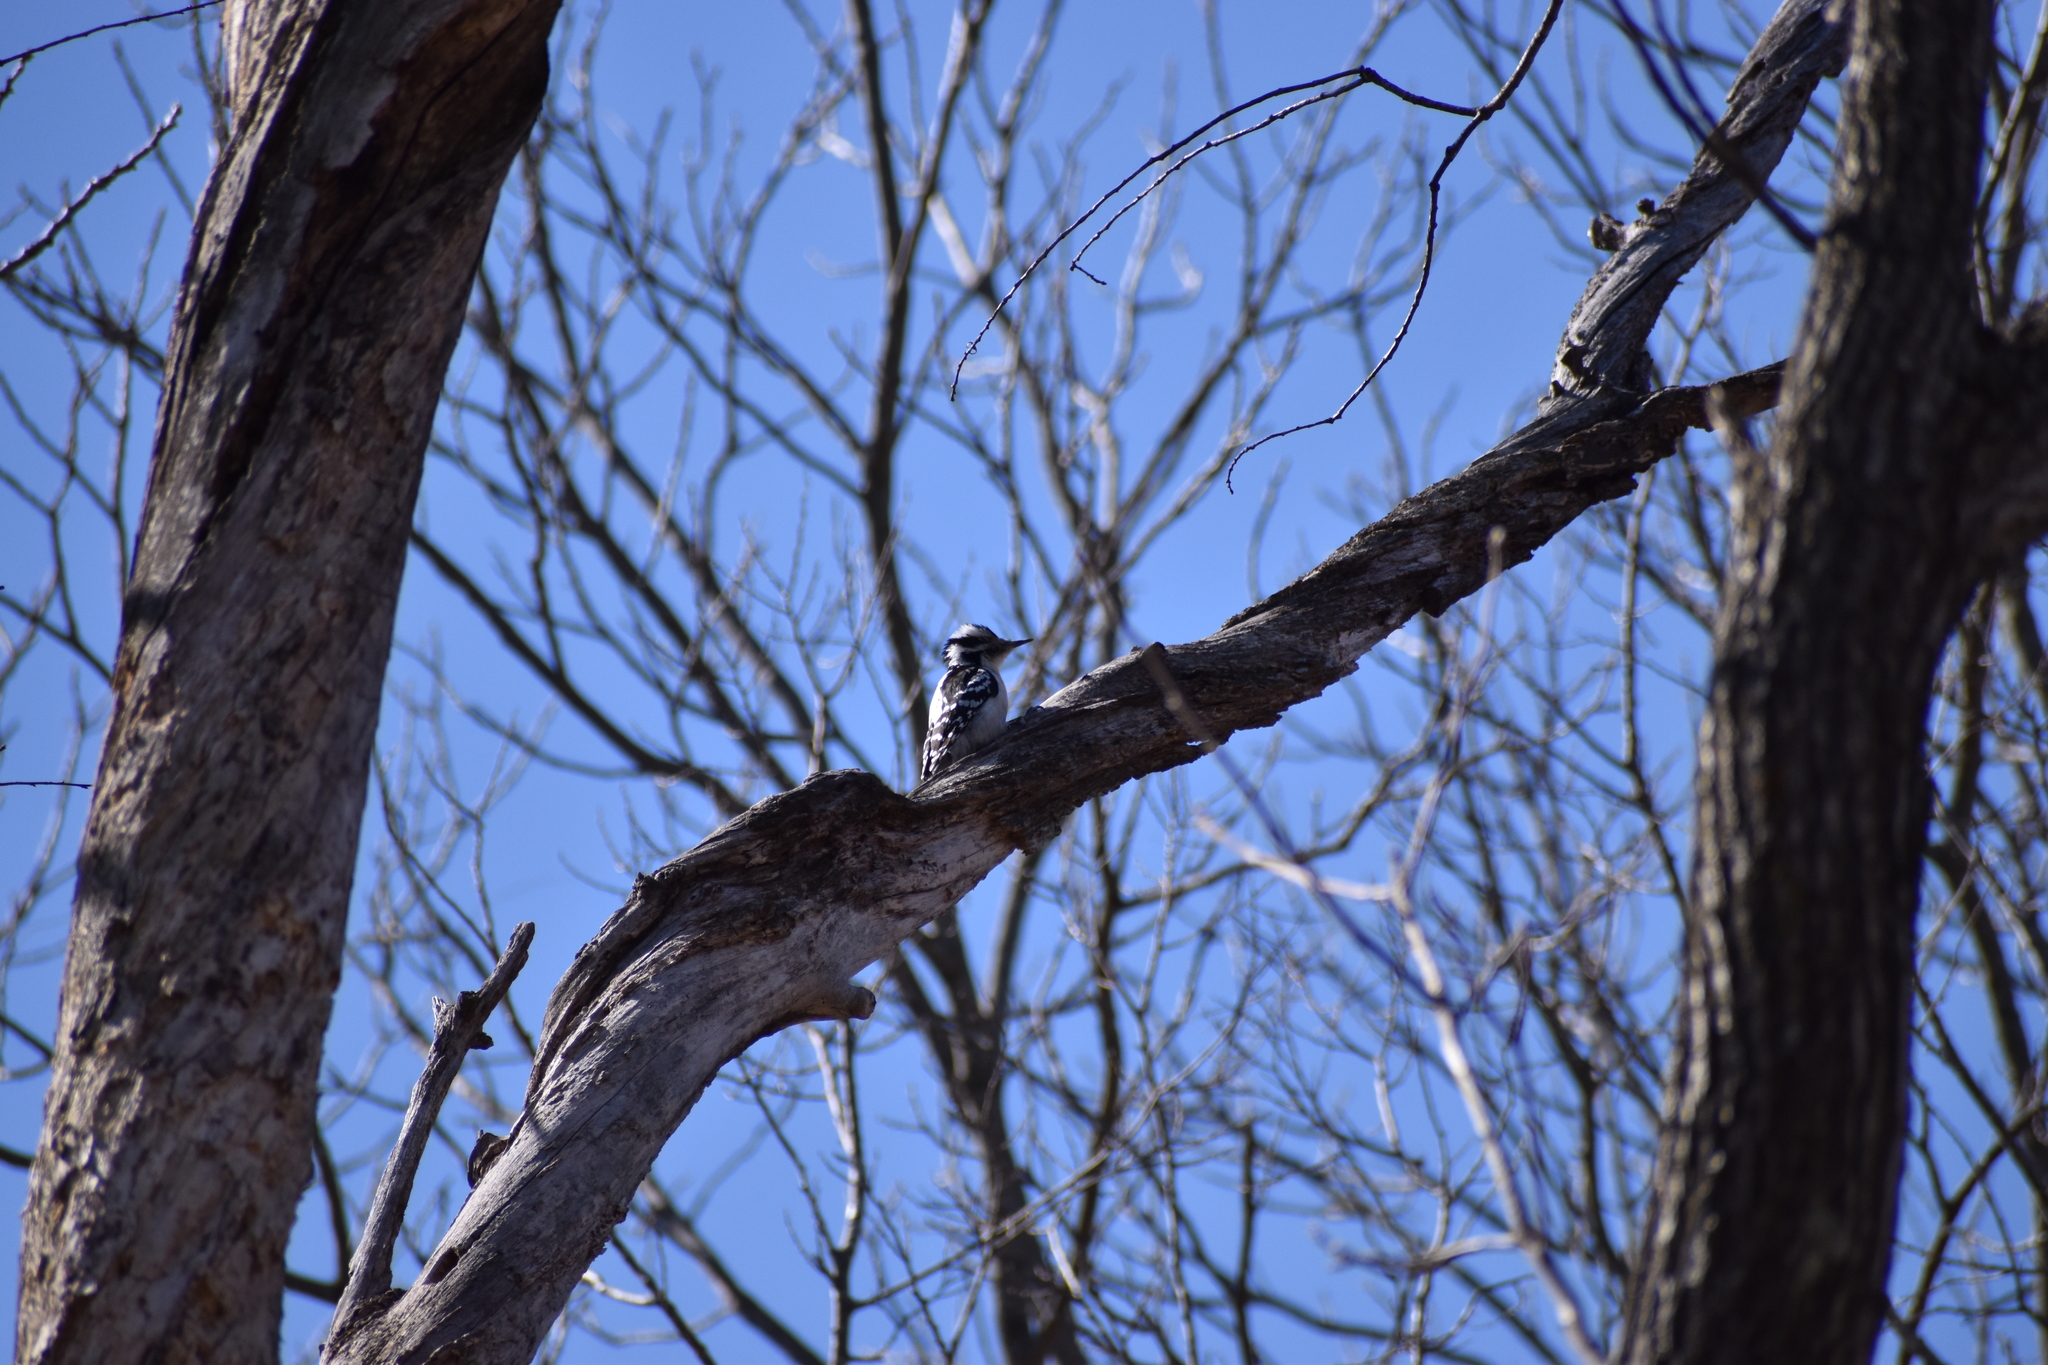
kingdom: Animalia
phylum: Chordata
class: Aves
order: Piciformes
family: Picidae
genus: Leuconotopicus
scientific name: Leuconotopicus villosus
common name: Hairy woodpecker
